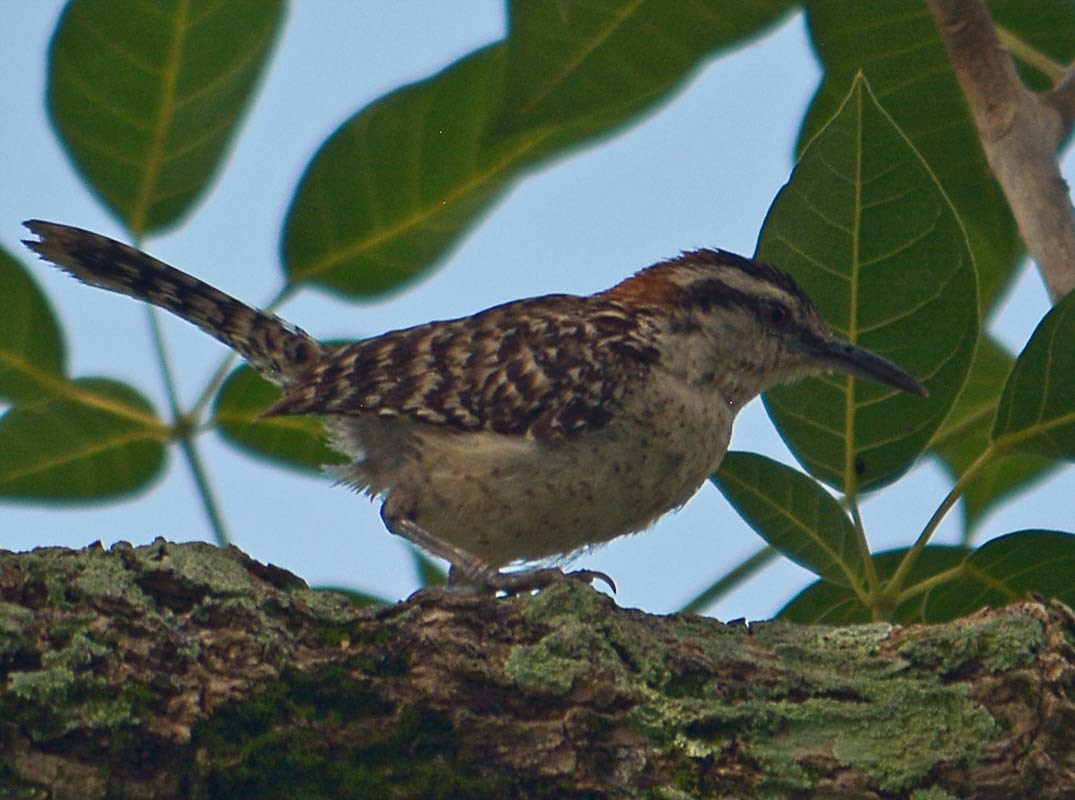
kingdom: Animalia
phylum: Chordata
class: Aves
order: Passeriformes
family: Troglodytidae
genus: Campylorhynchus
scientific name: Campylorhynchus rufinucha
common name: Rufous-naped wren
